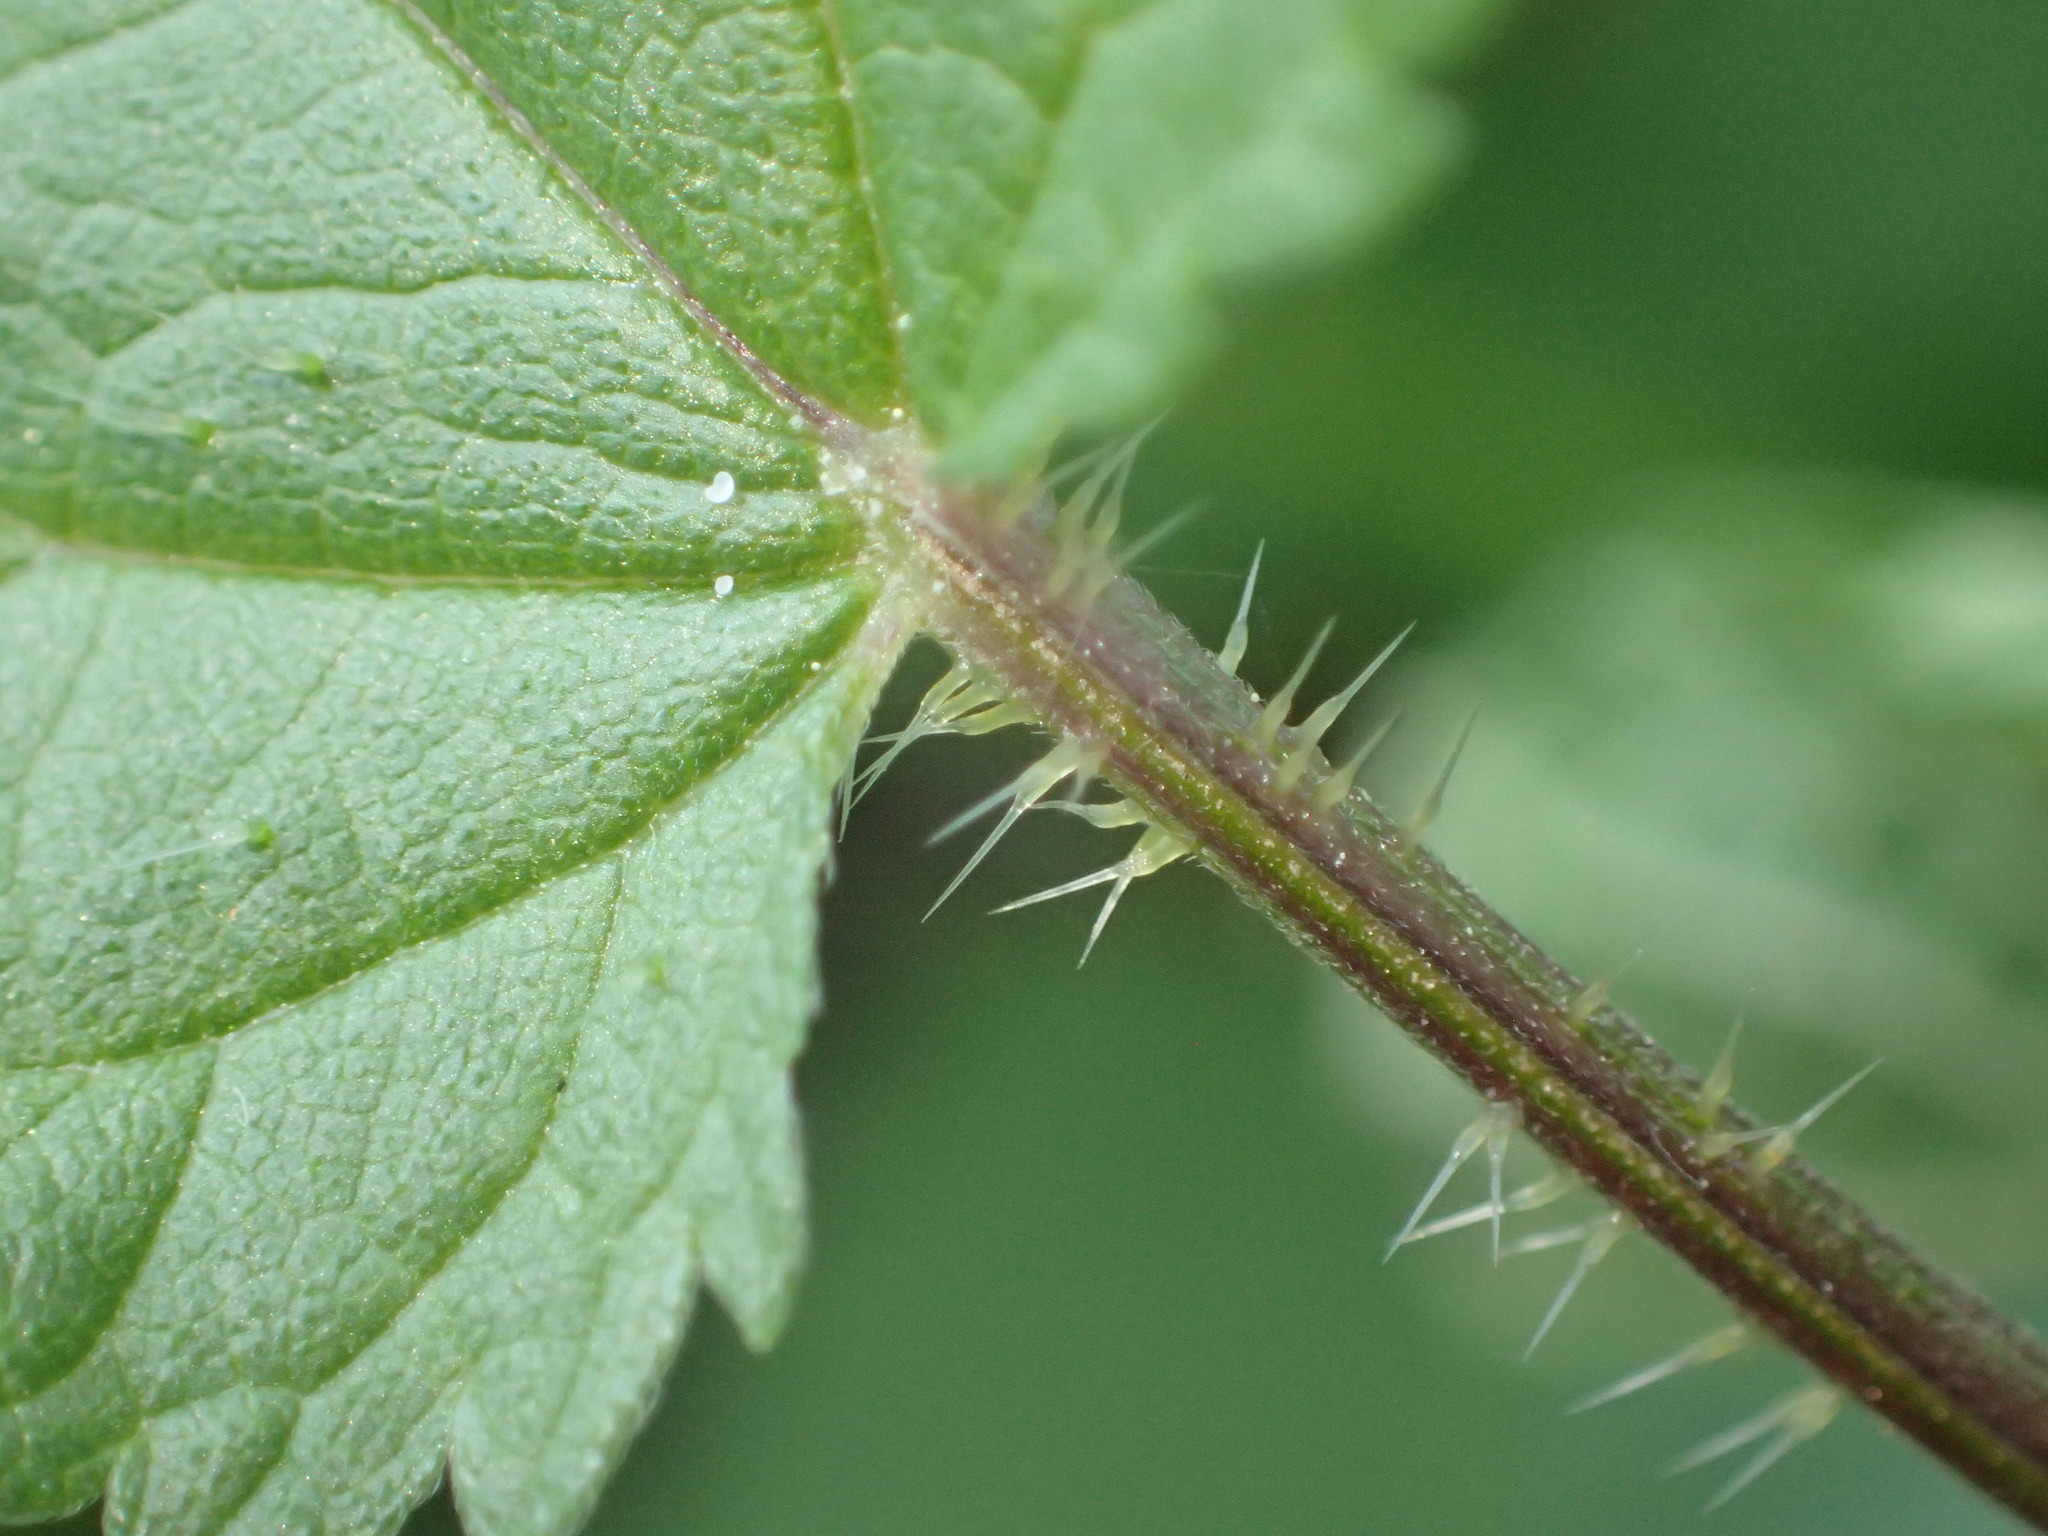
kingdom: Plantae
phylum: Tracheophyta
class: Magnoliopsida
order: Rosales
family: Urticaceae
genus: Urtica
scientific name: Urtica dioica
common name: Common nettle
